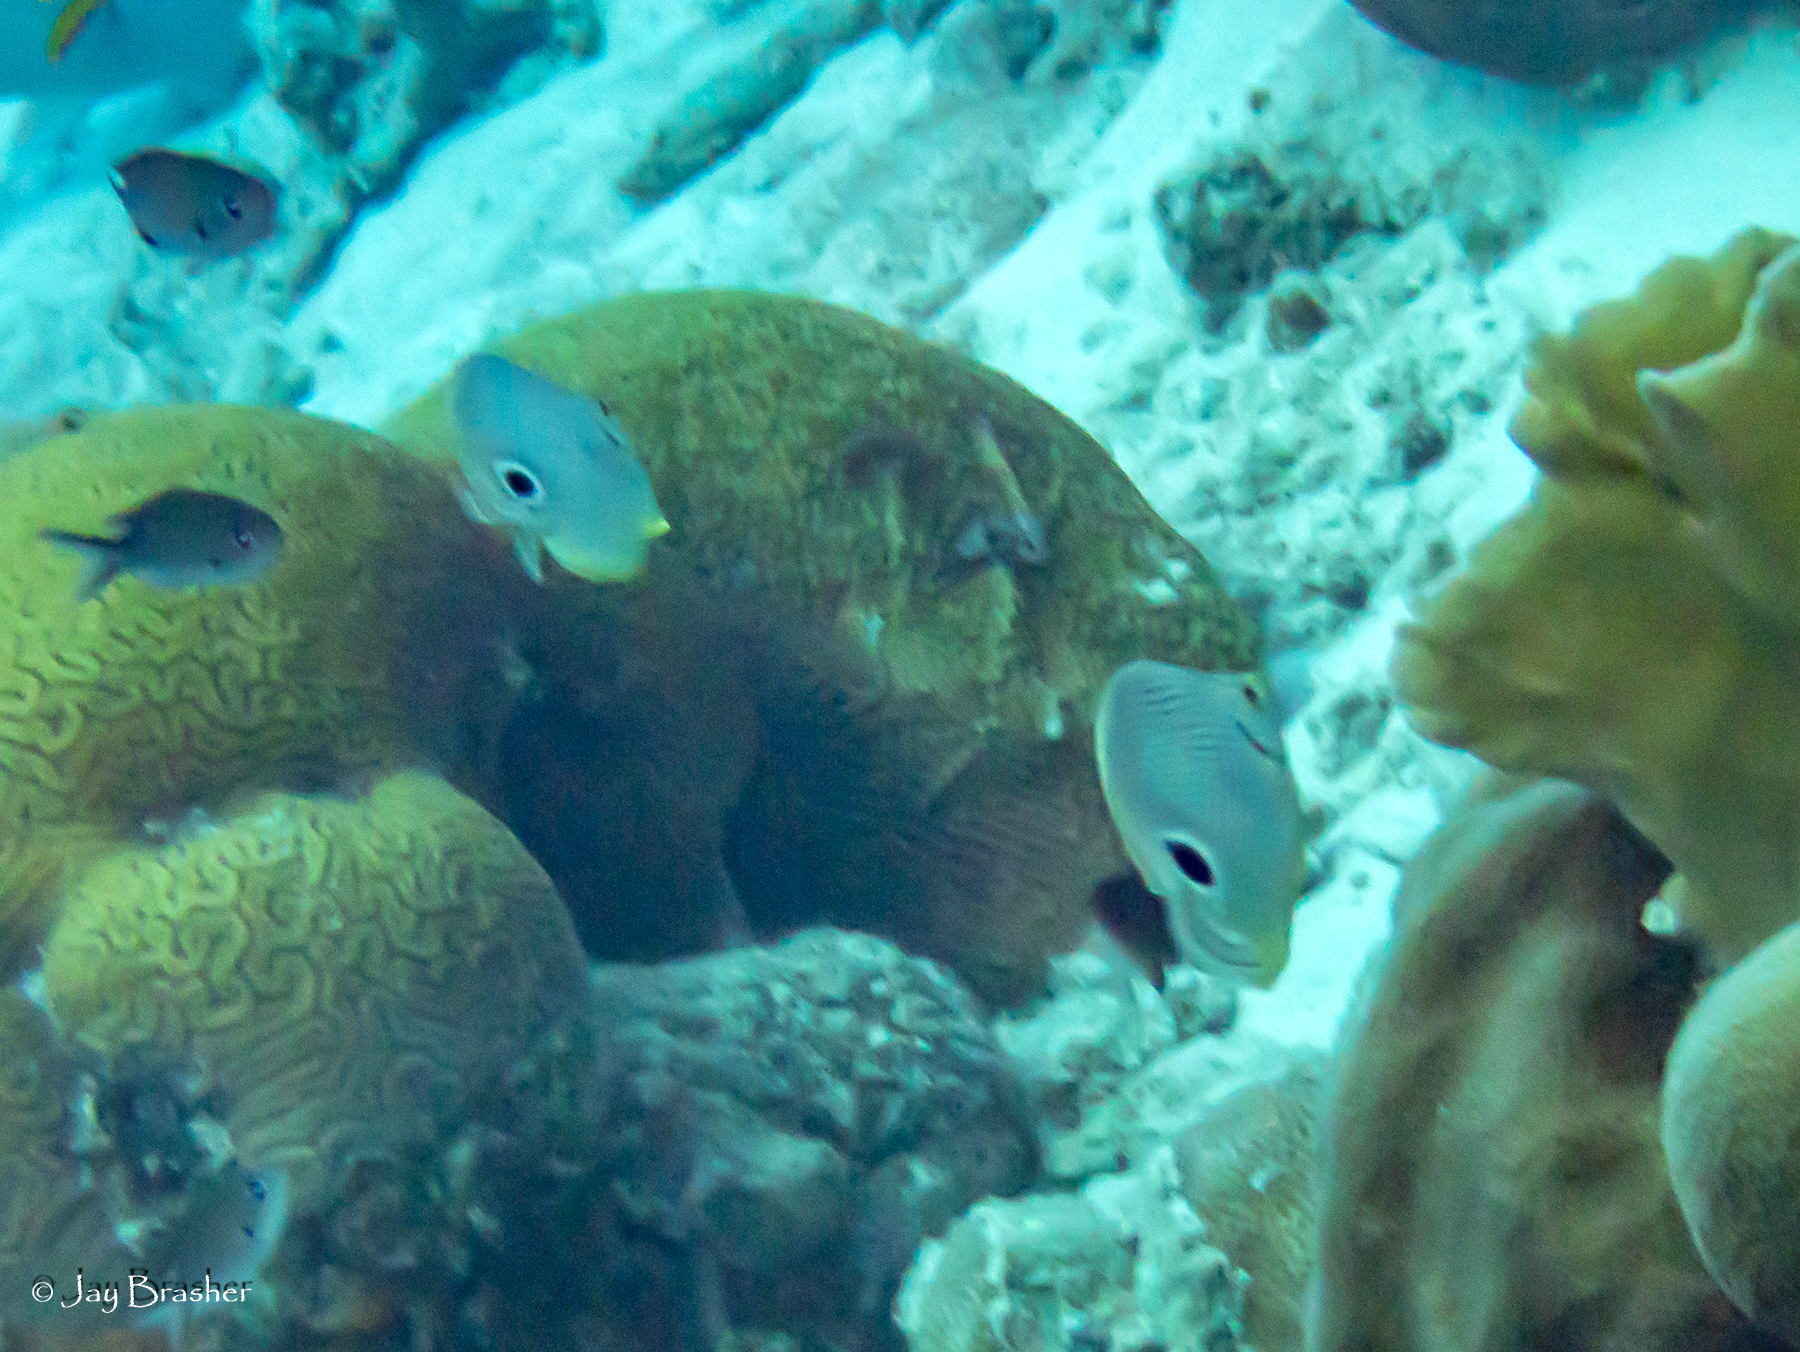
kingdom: Animalia
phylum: Chordata
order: Perciformes
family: Pomacentridae
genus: Chromis
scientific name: Chromis multilineata
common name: Brown chromis
